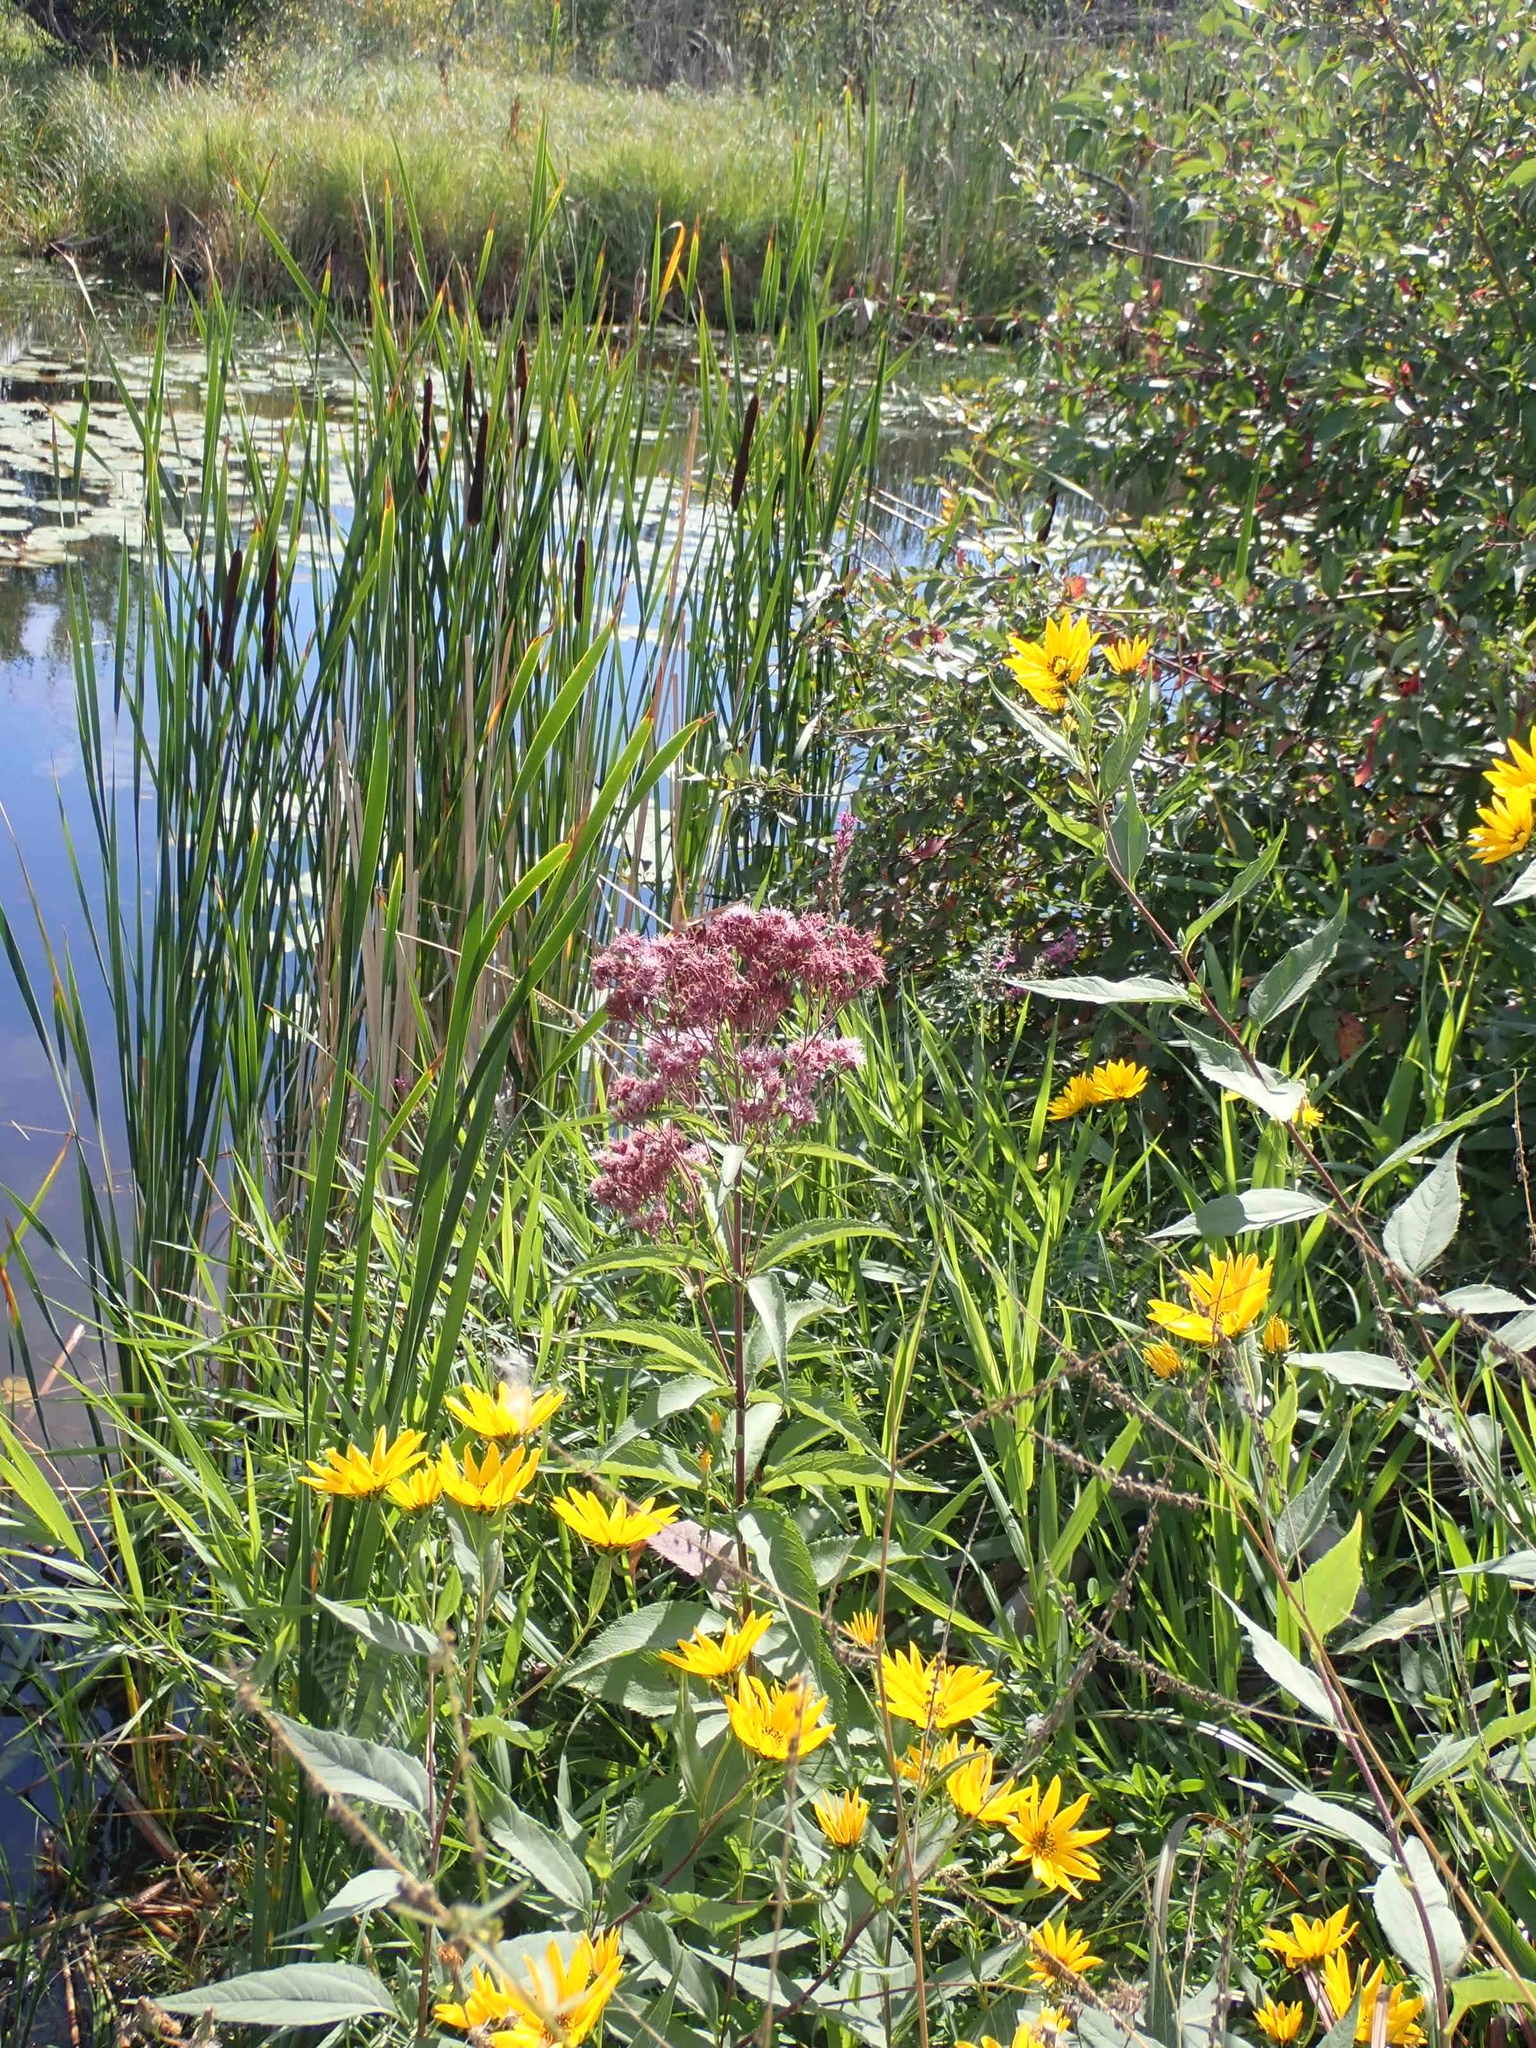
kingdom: Plantae
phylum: Tracheophyta
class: Magnoliopsida
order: Asterales
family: Asteraceae
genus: Eutrochium
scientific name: Eutrochium maculatum
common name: Spotted joe pye weed
